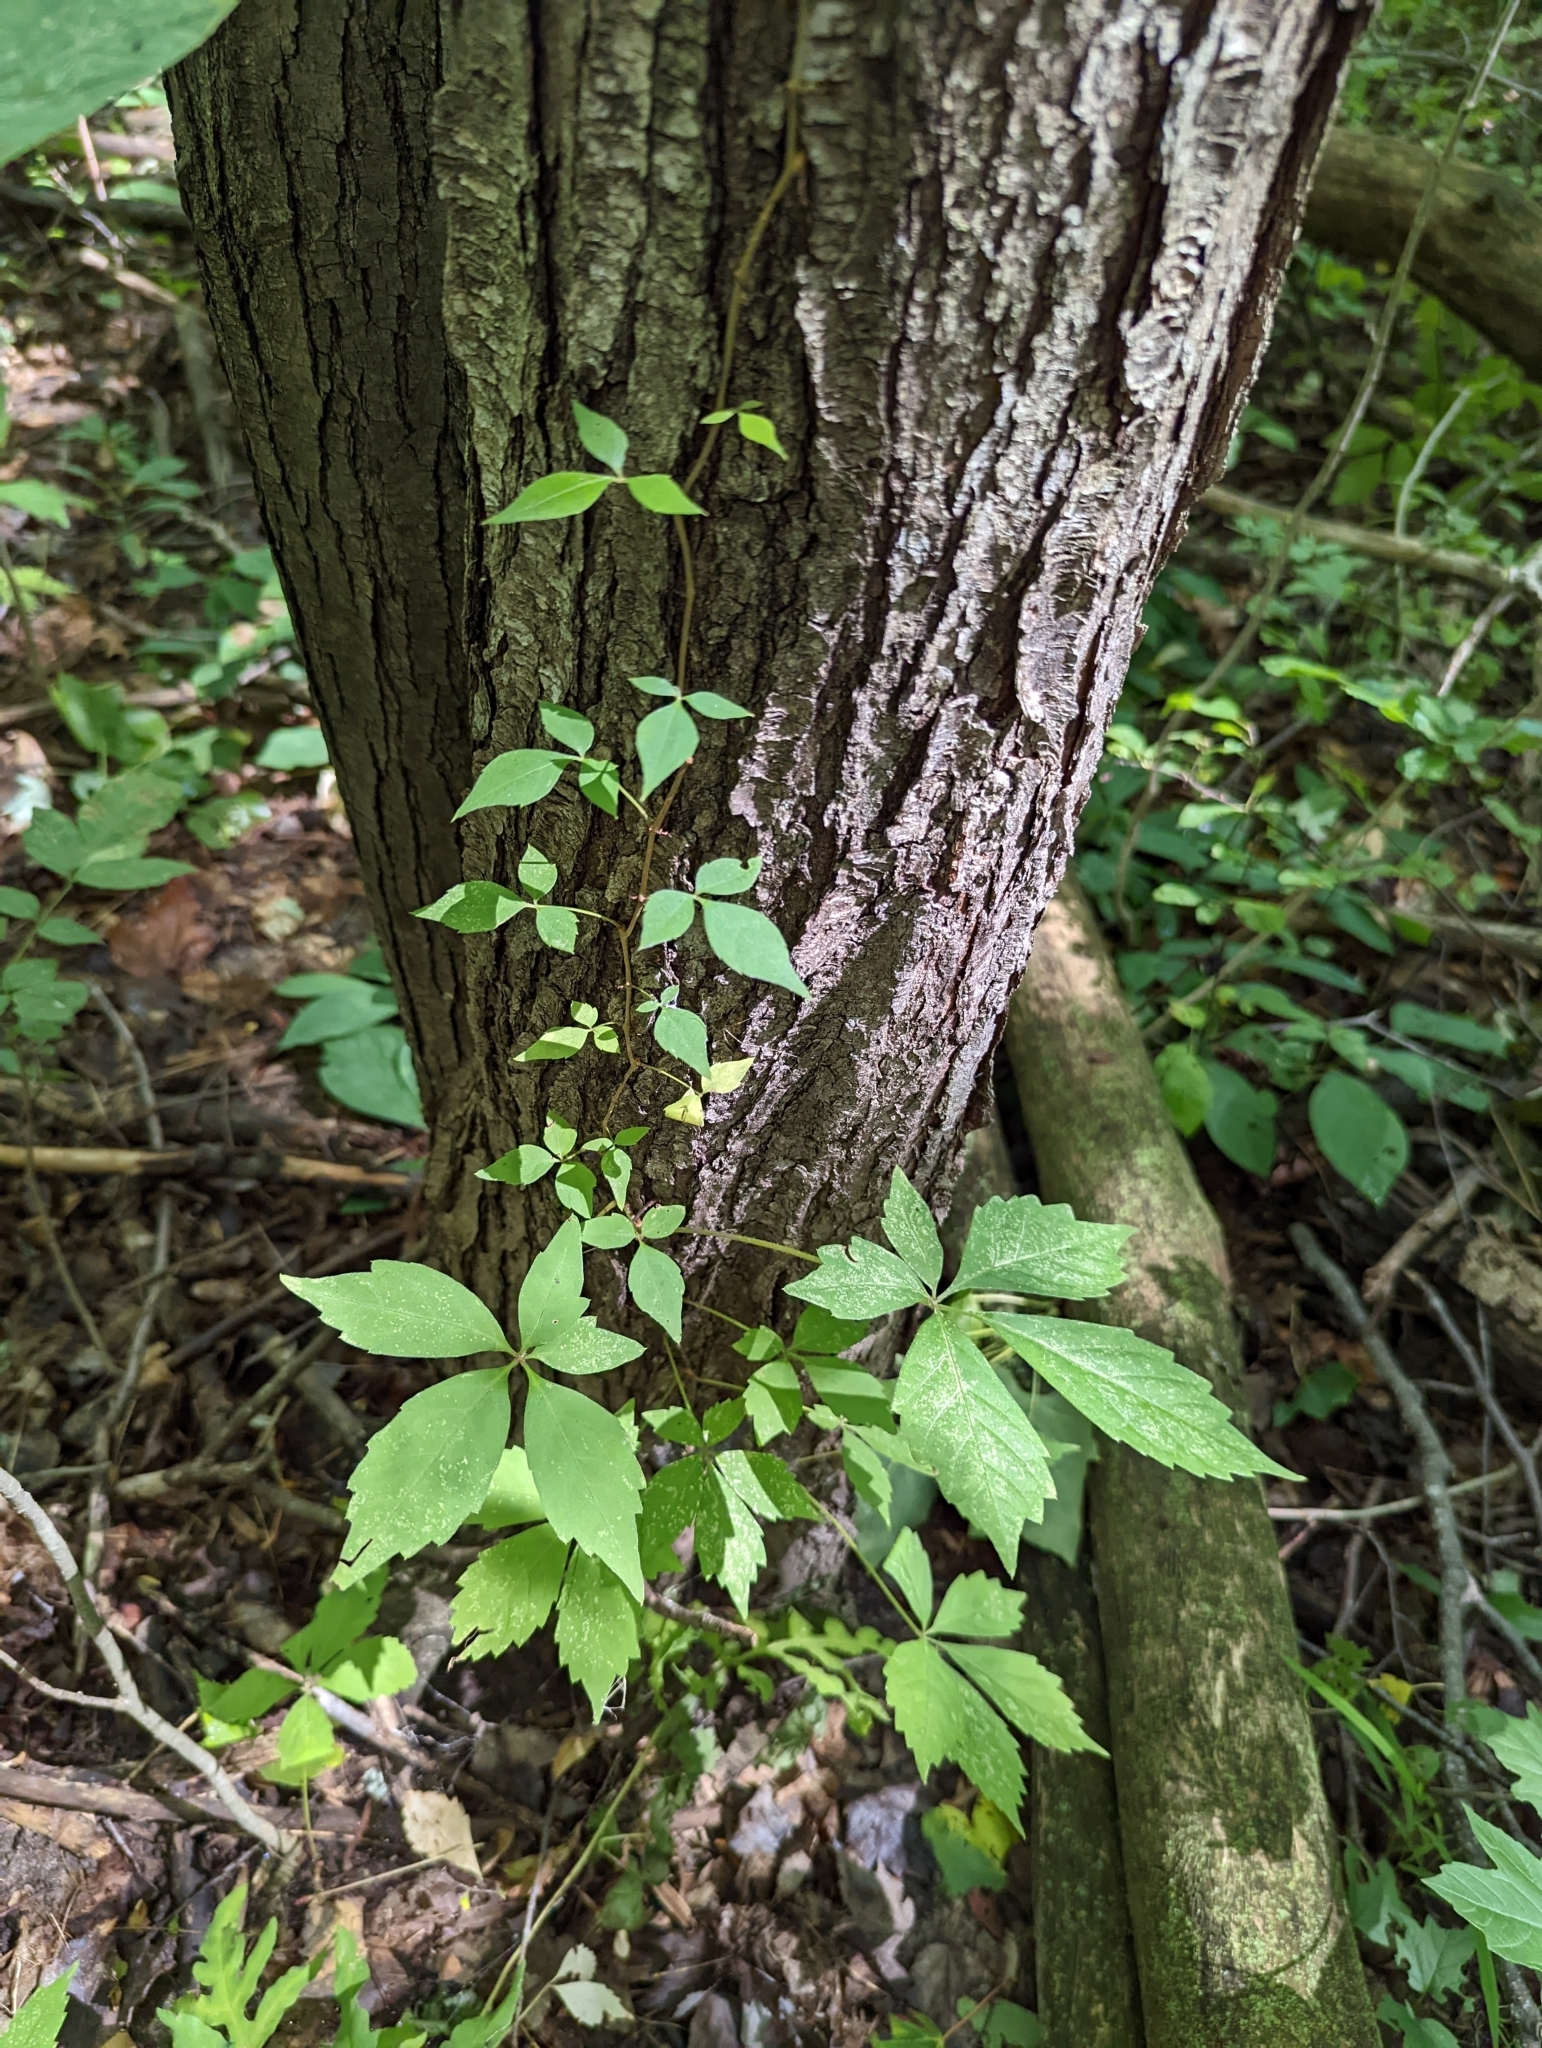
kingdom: Plantae
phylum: Tracheophyta
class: Magnoliopsida
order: Vitales
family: Vitaceae
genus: Parthenocissus
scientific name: Parthenocissus quinquefolia
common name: Virginia-creeper
